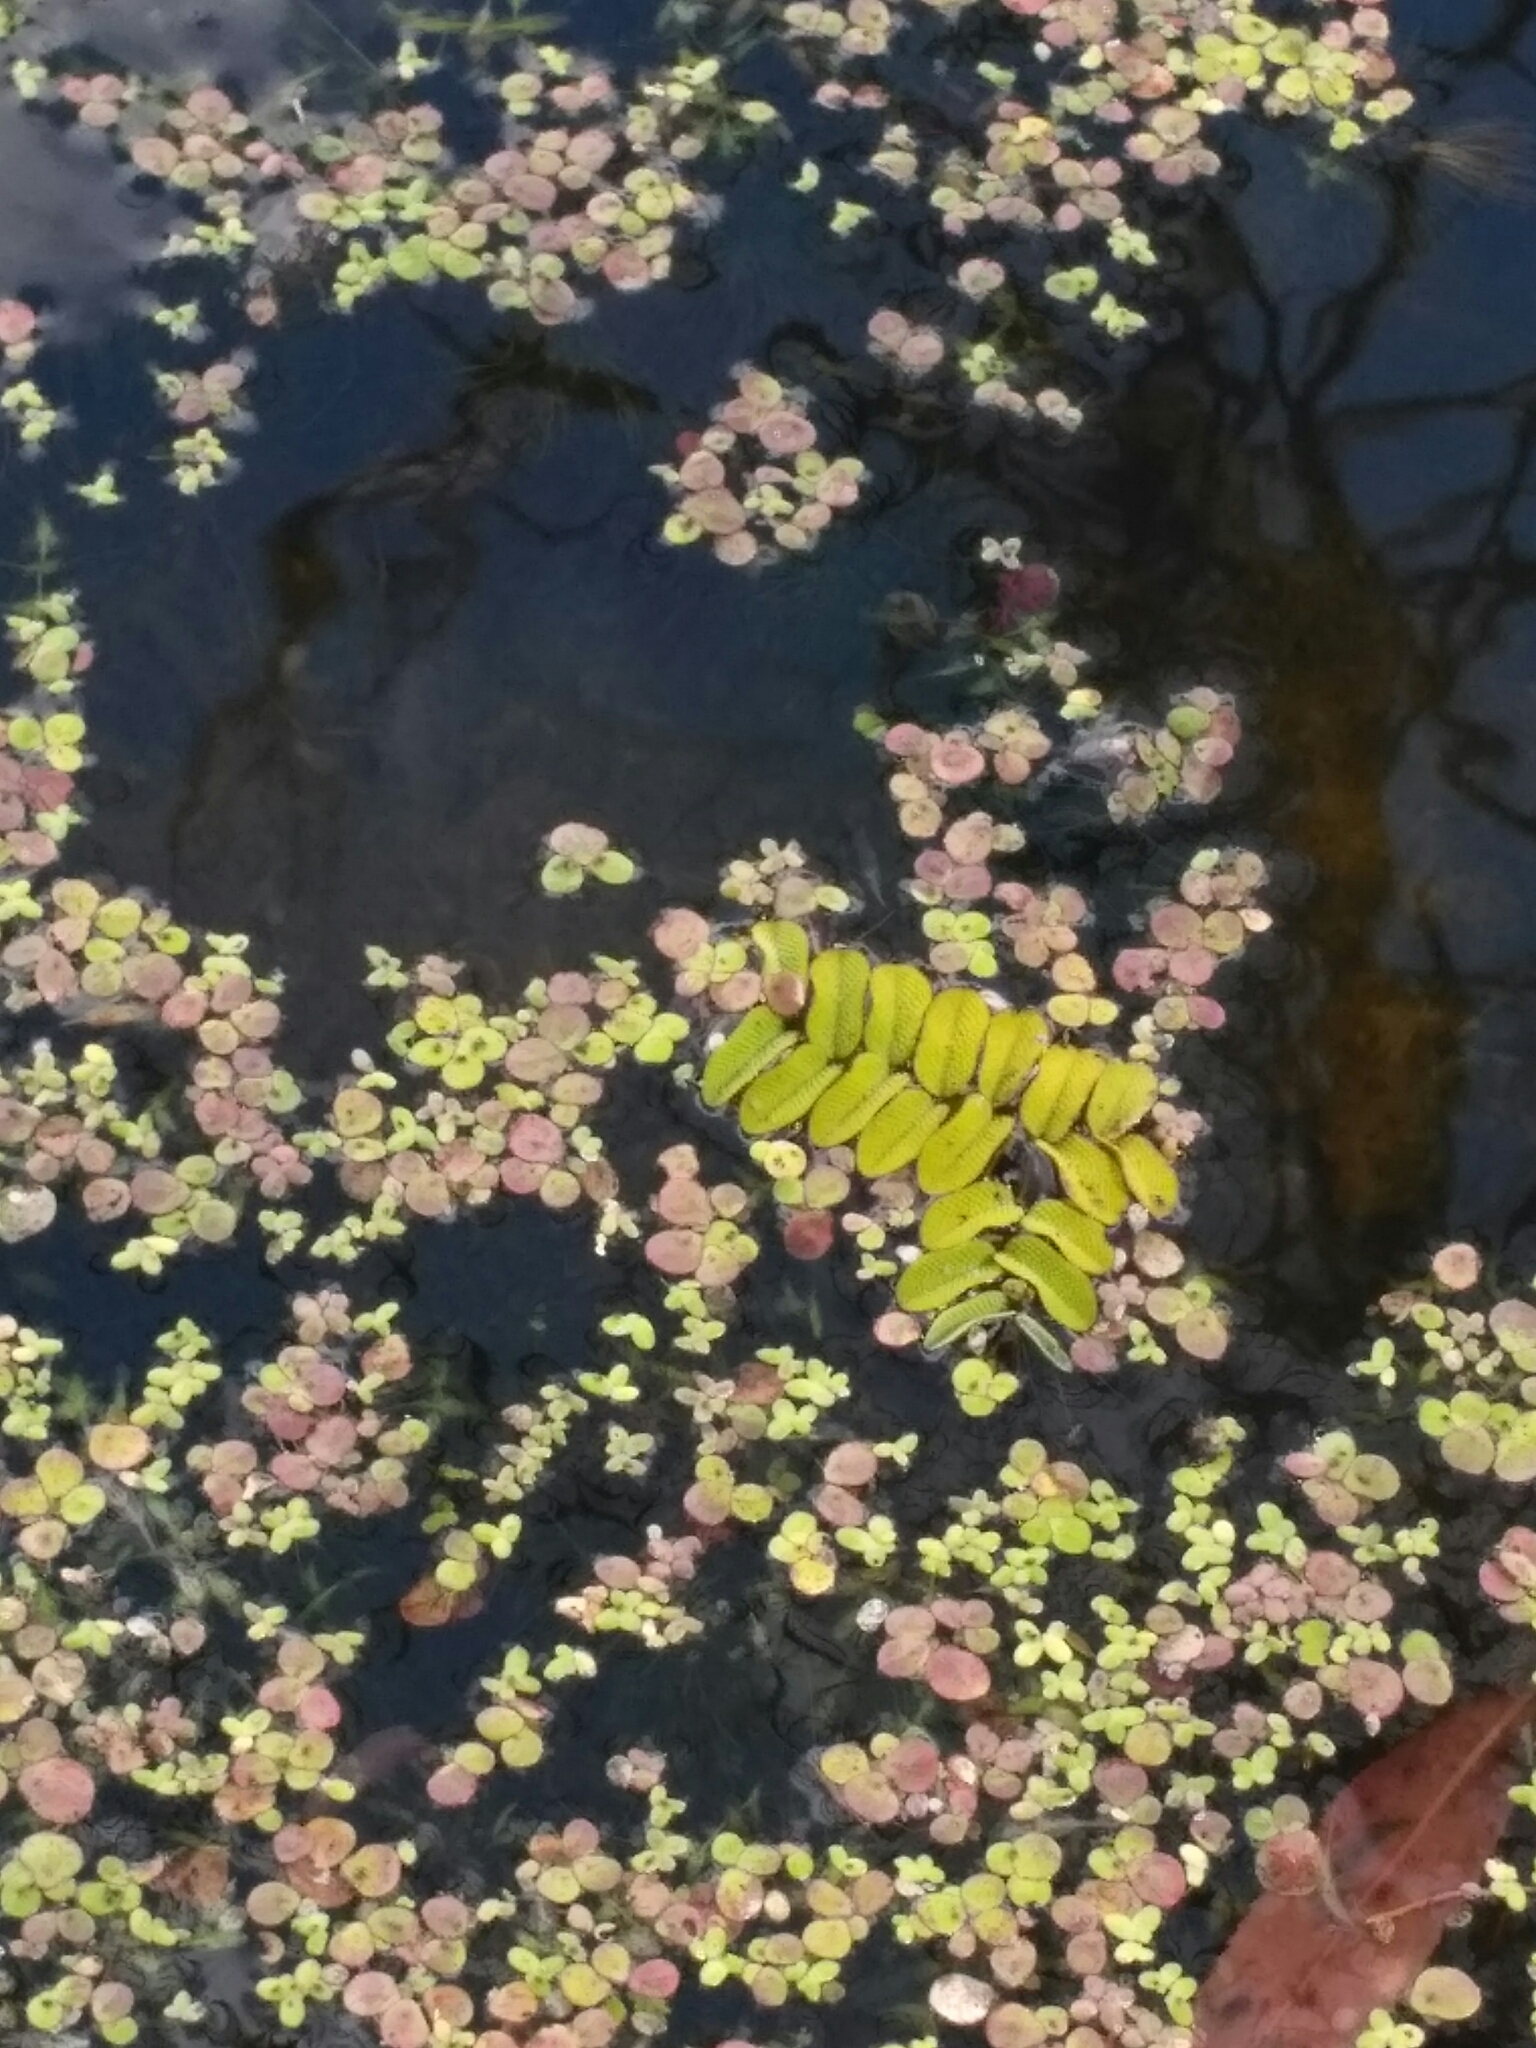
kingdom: Plantae
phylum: Tracheophyta
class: Polypodiopsida
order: Salviniales
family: Salviniaceae
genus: Salvinia
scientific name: Salvinia natans
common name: Floating fern
